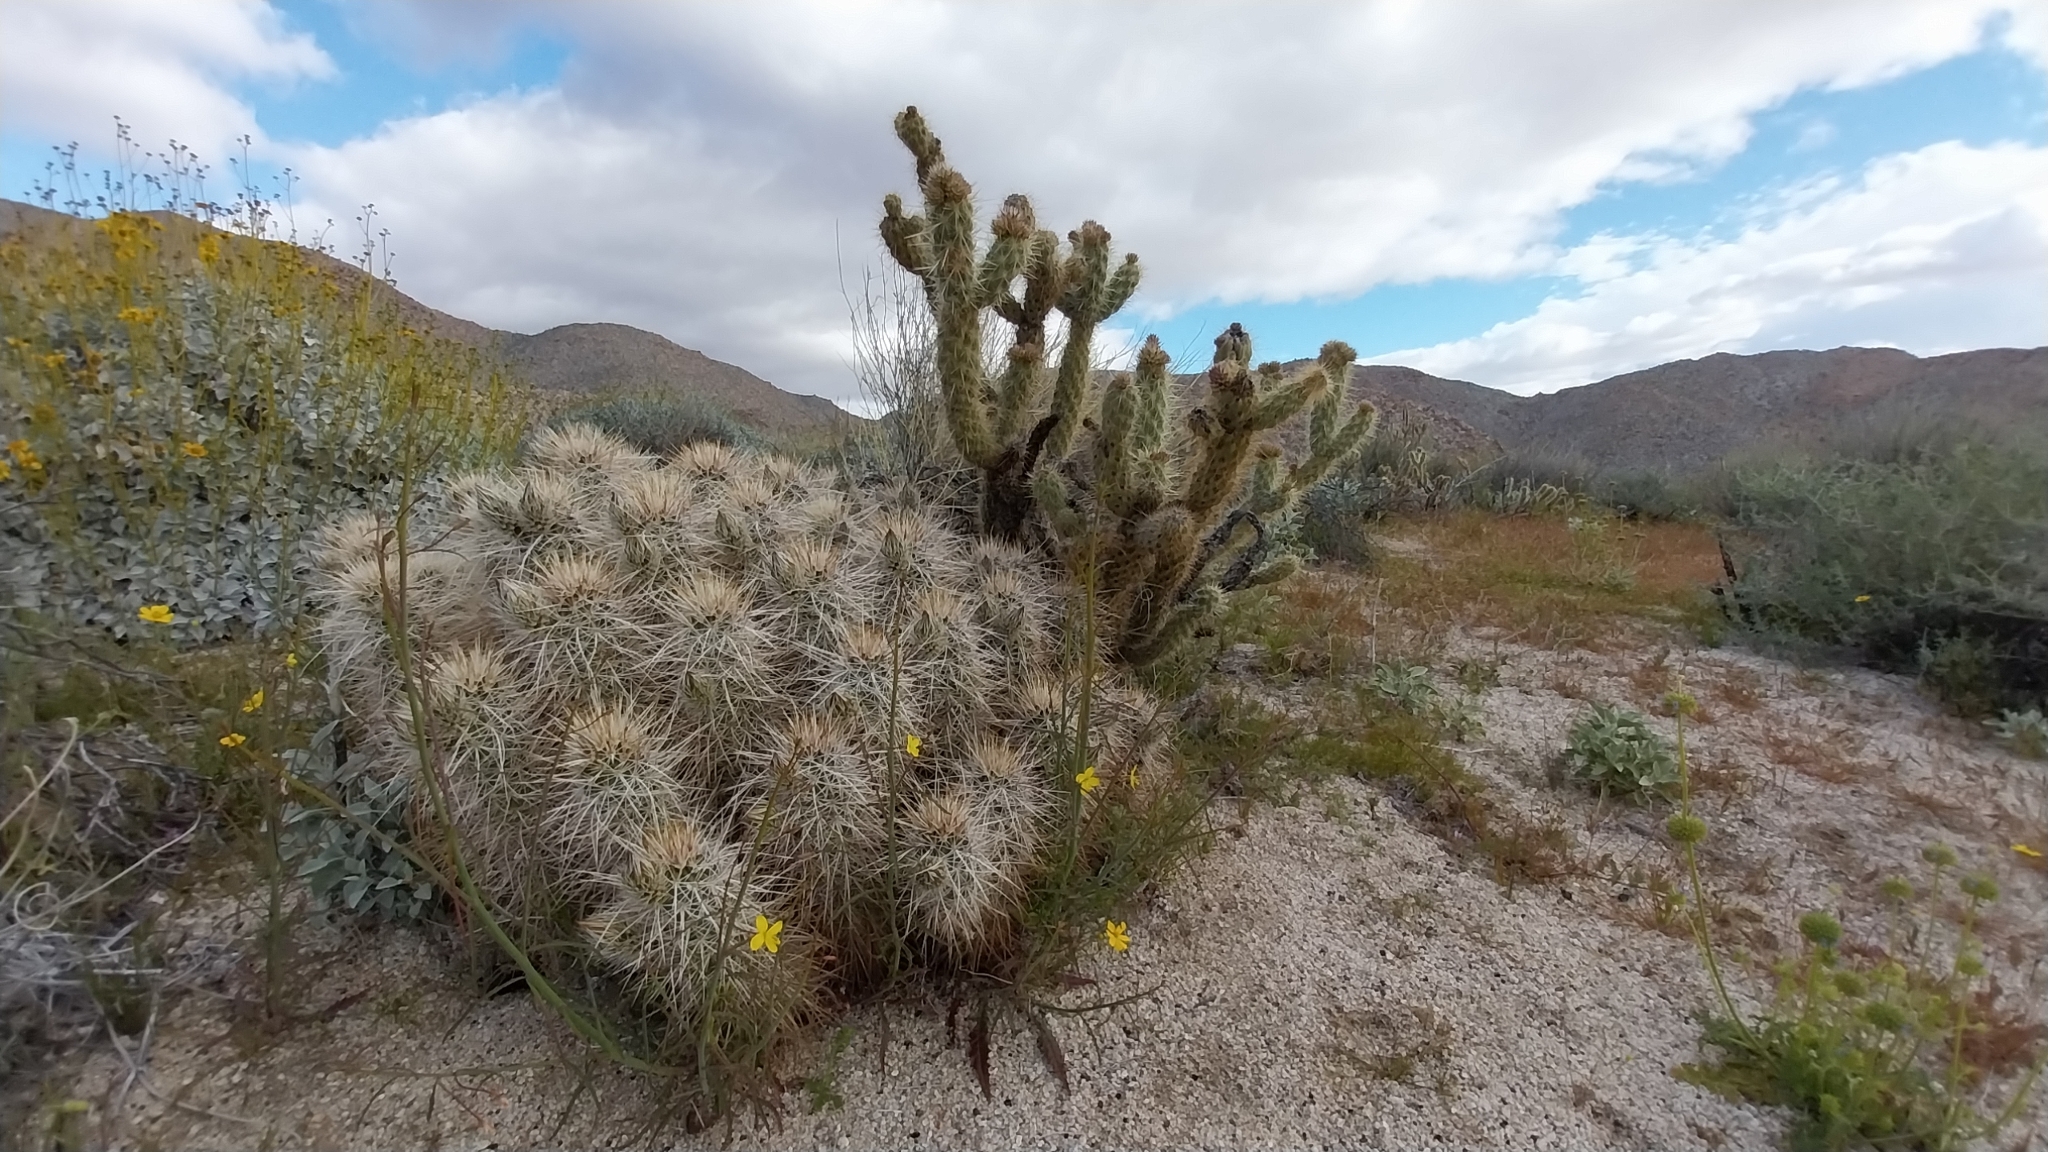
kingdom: Plantae
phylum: Tracheophyta
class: Magnoliopsida
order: Caryophyllales
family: Cactaceae
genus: Echinocereus
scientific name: Echinocereus engelmannii
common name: Engelmann's hedgehog cactus
